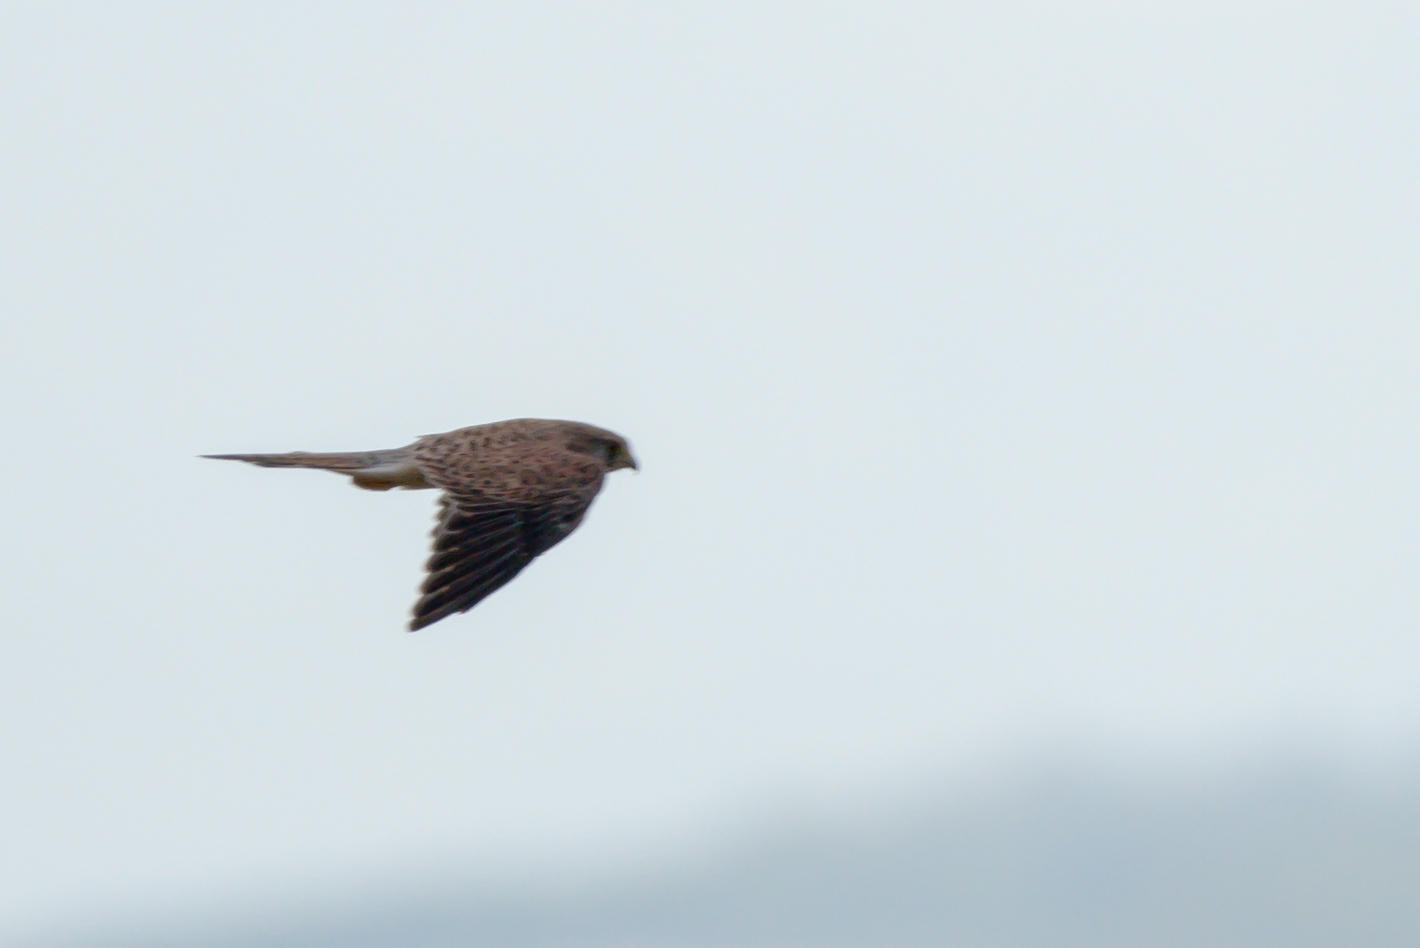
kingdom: Animalia
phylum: Chordata
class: Aves
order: Falconiformes
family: Falconidae
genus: Falco
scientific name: Falco tinnunculus
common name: Common kestrel
